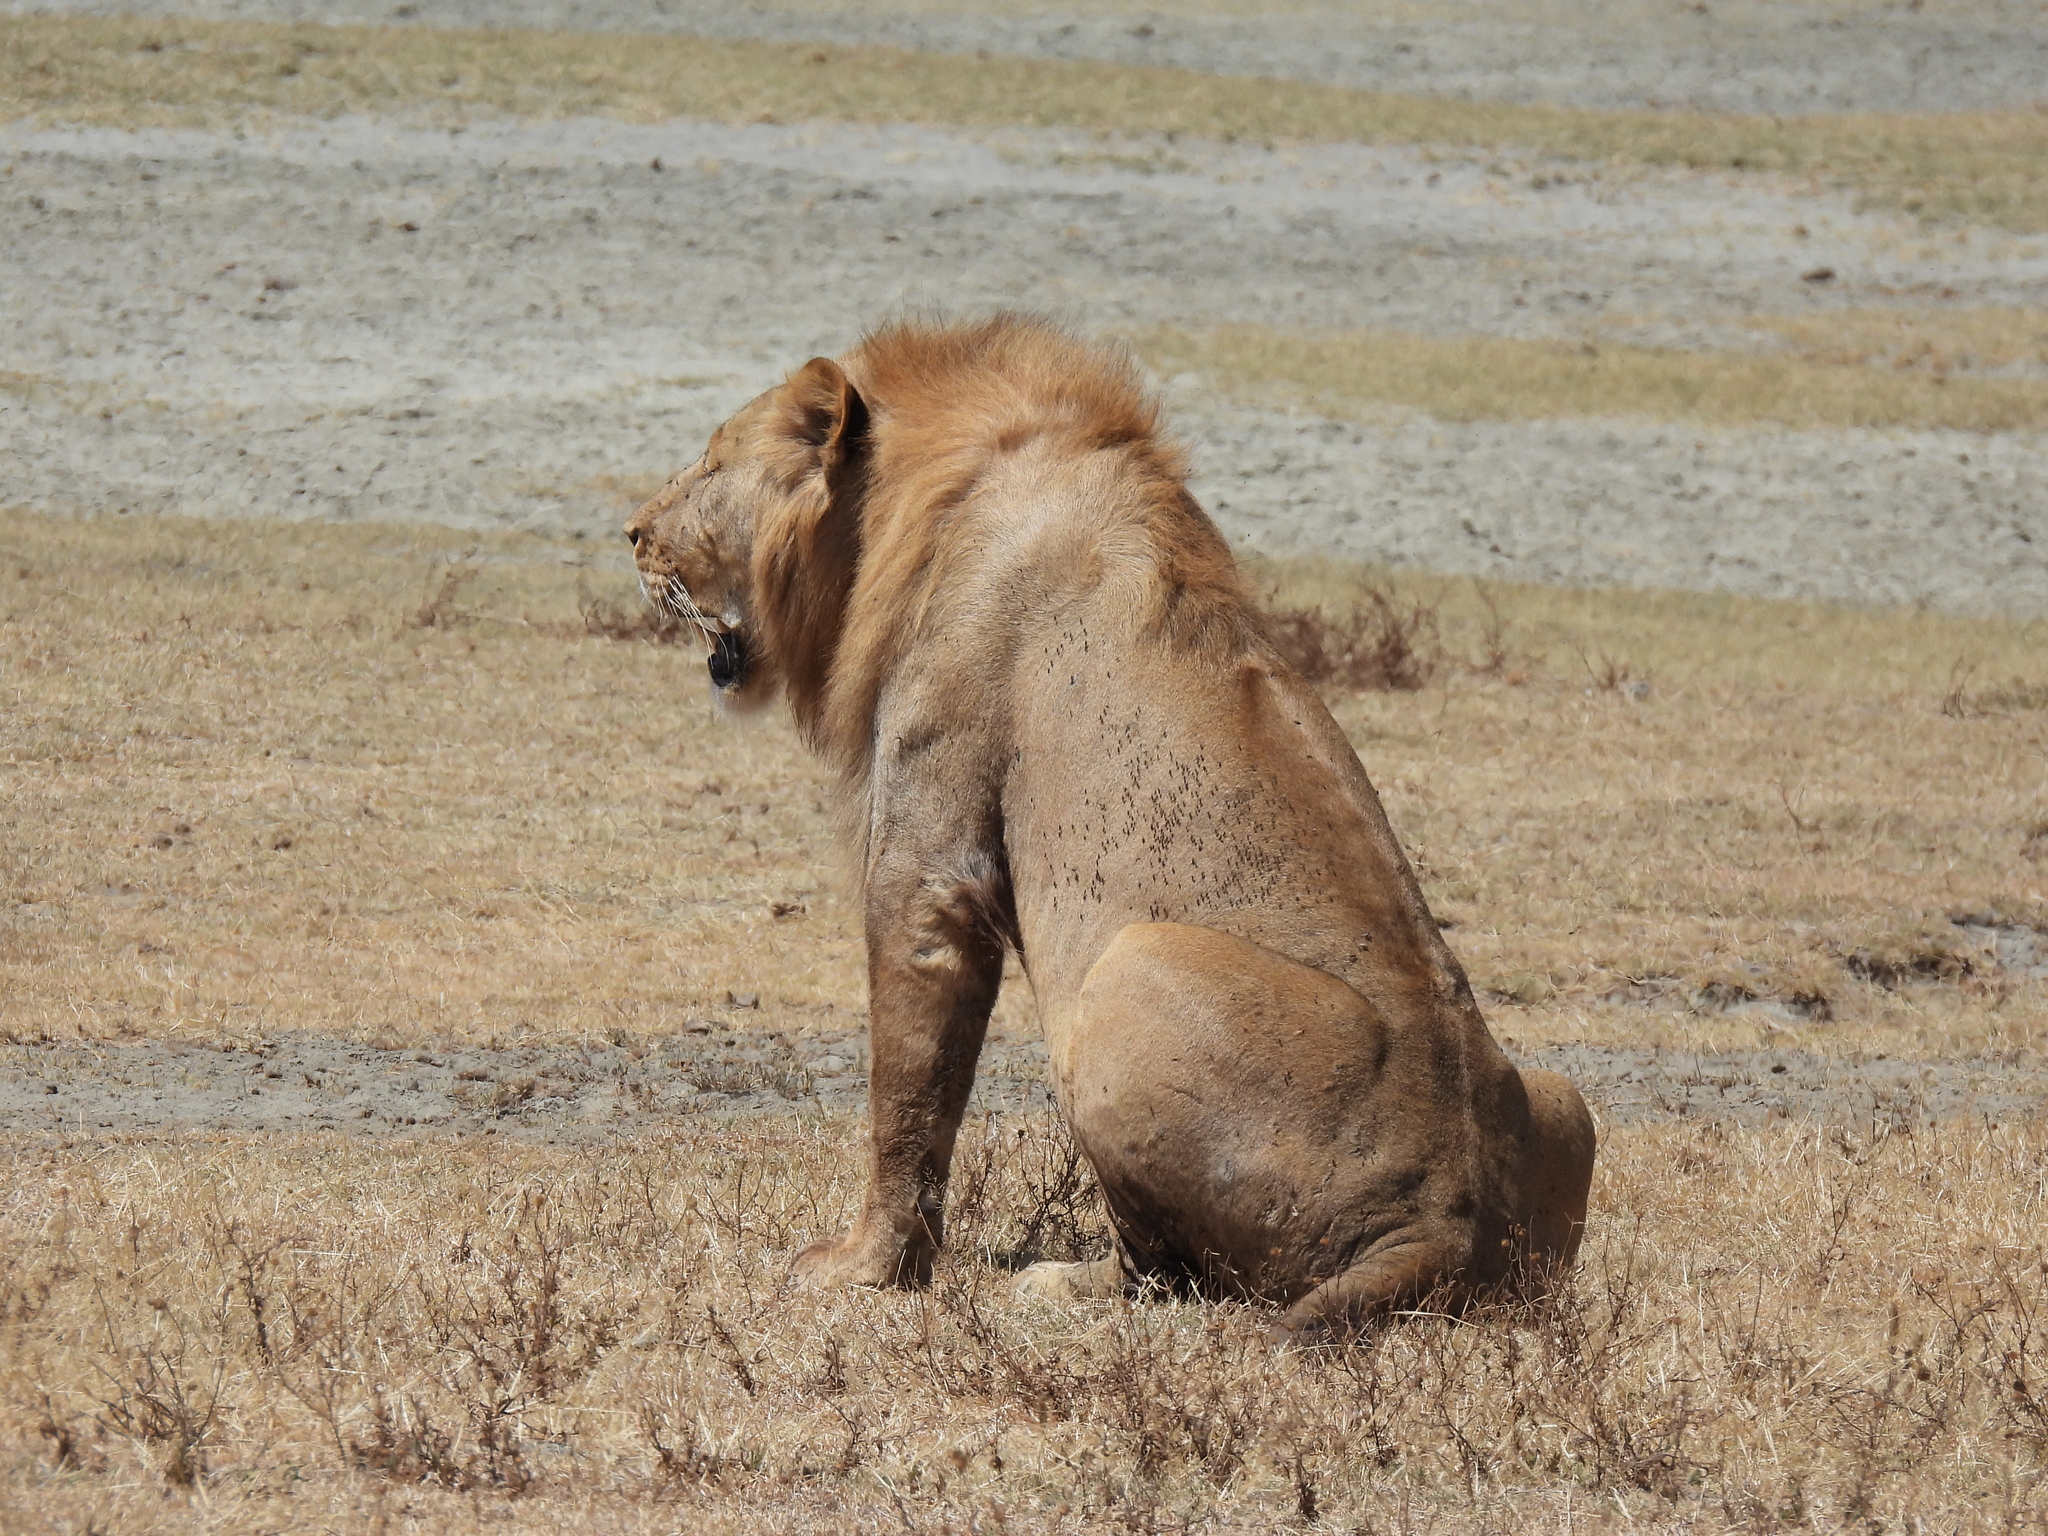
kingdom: Animalia
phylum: Chordata
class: Mammalia
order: Carnivora
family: Felidae
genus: Panthera
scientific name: Panthera leo
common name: Lion
